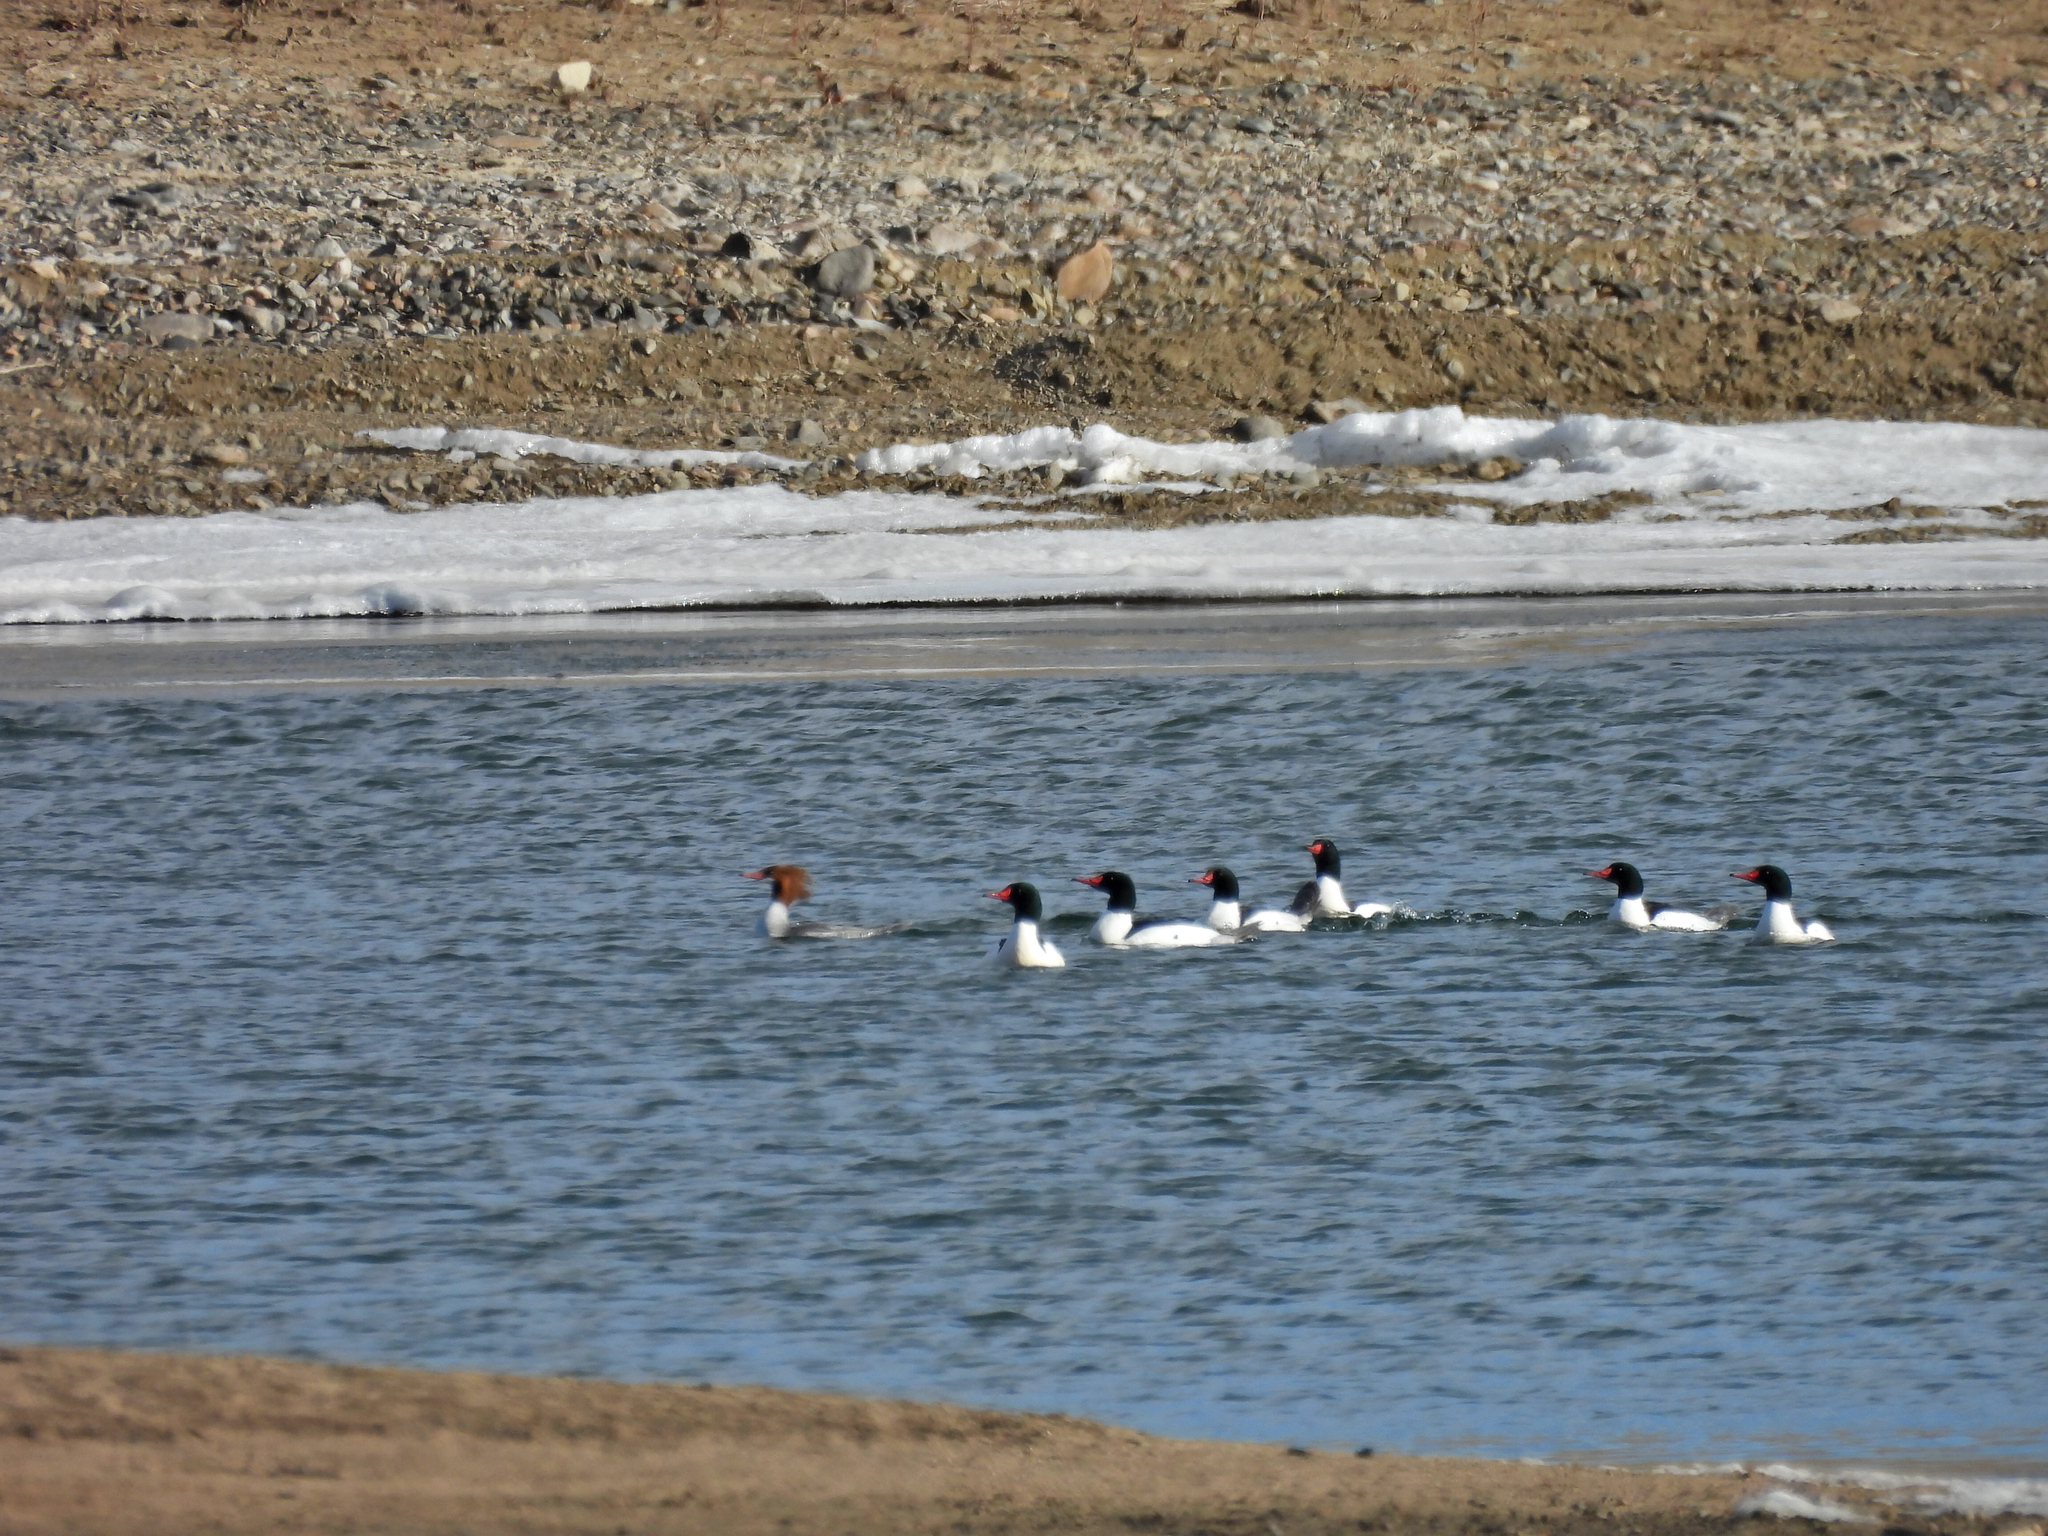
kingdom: Animalia
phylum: Chordata
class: Aves
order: Anseriformes
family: Anatidae
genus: Mergus
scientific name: Mergus merganser
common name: Common merganser
